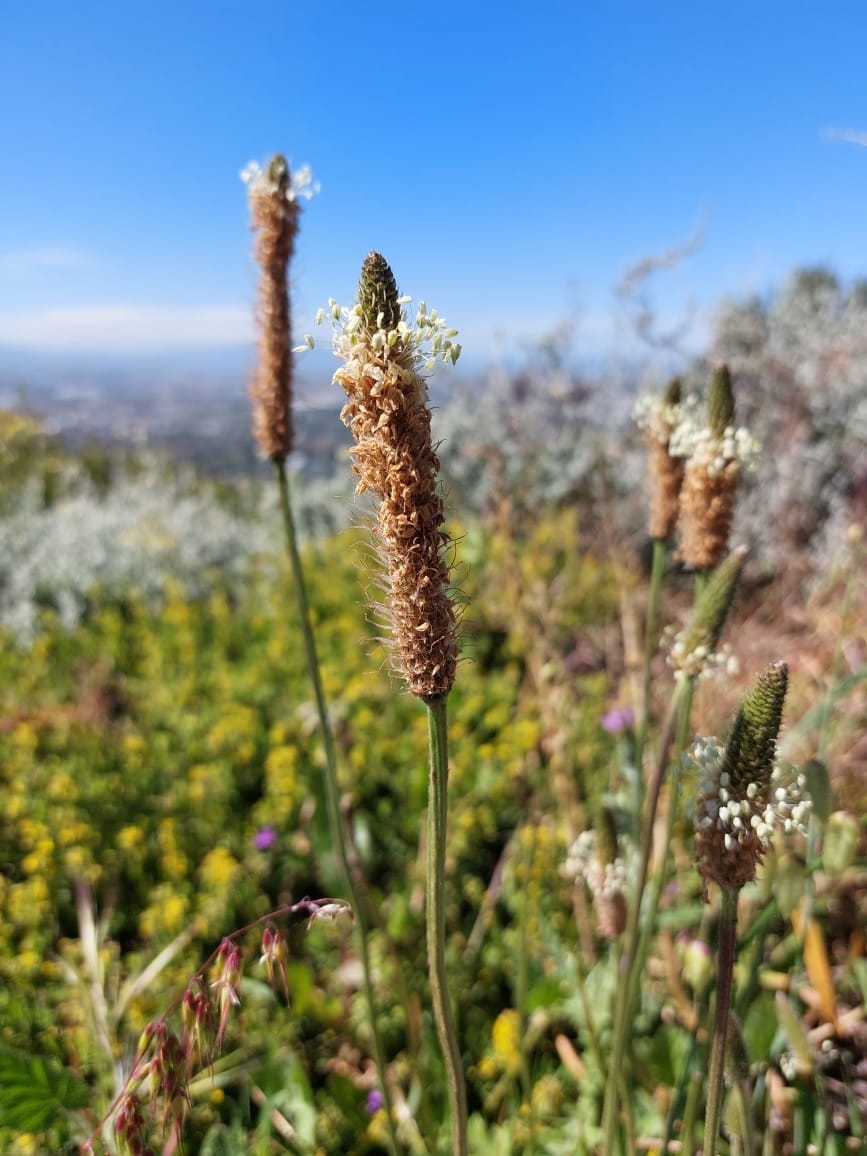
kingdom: Plantae
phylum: Tracheophyta
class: Magnoliopsida
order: Lamiales
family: Plantaginaceae
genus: Plantago
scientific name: Plantago lanceolata
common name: Ribwort plantain
